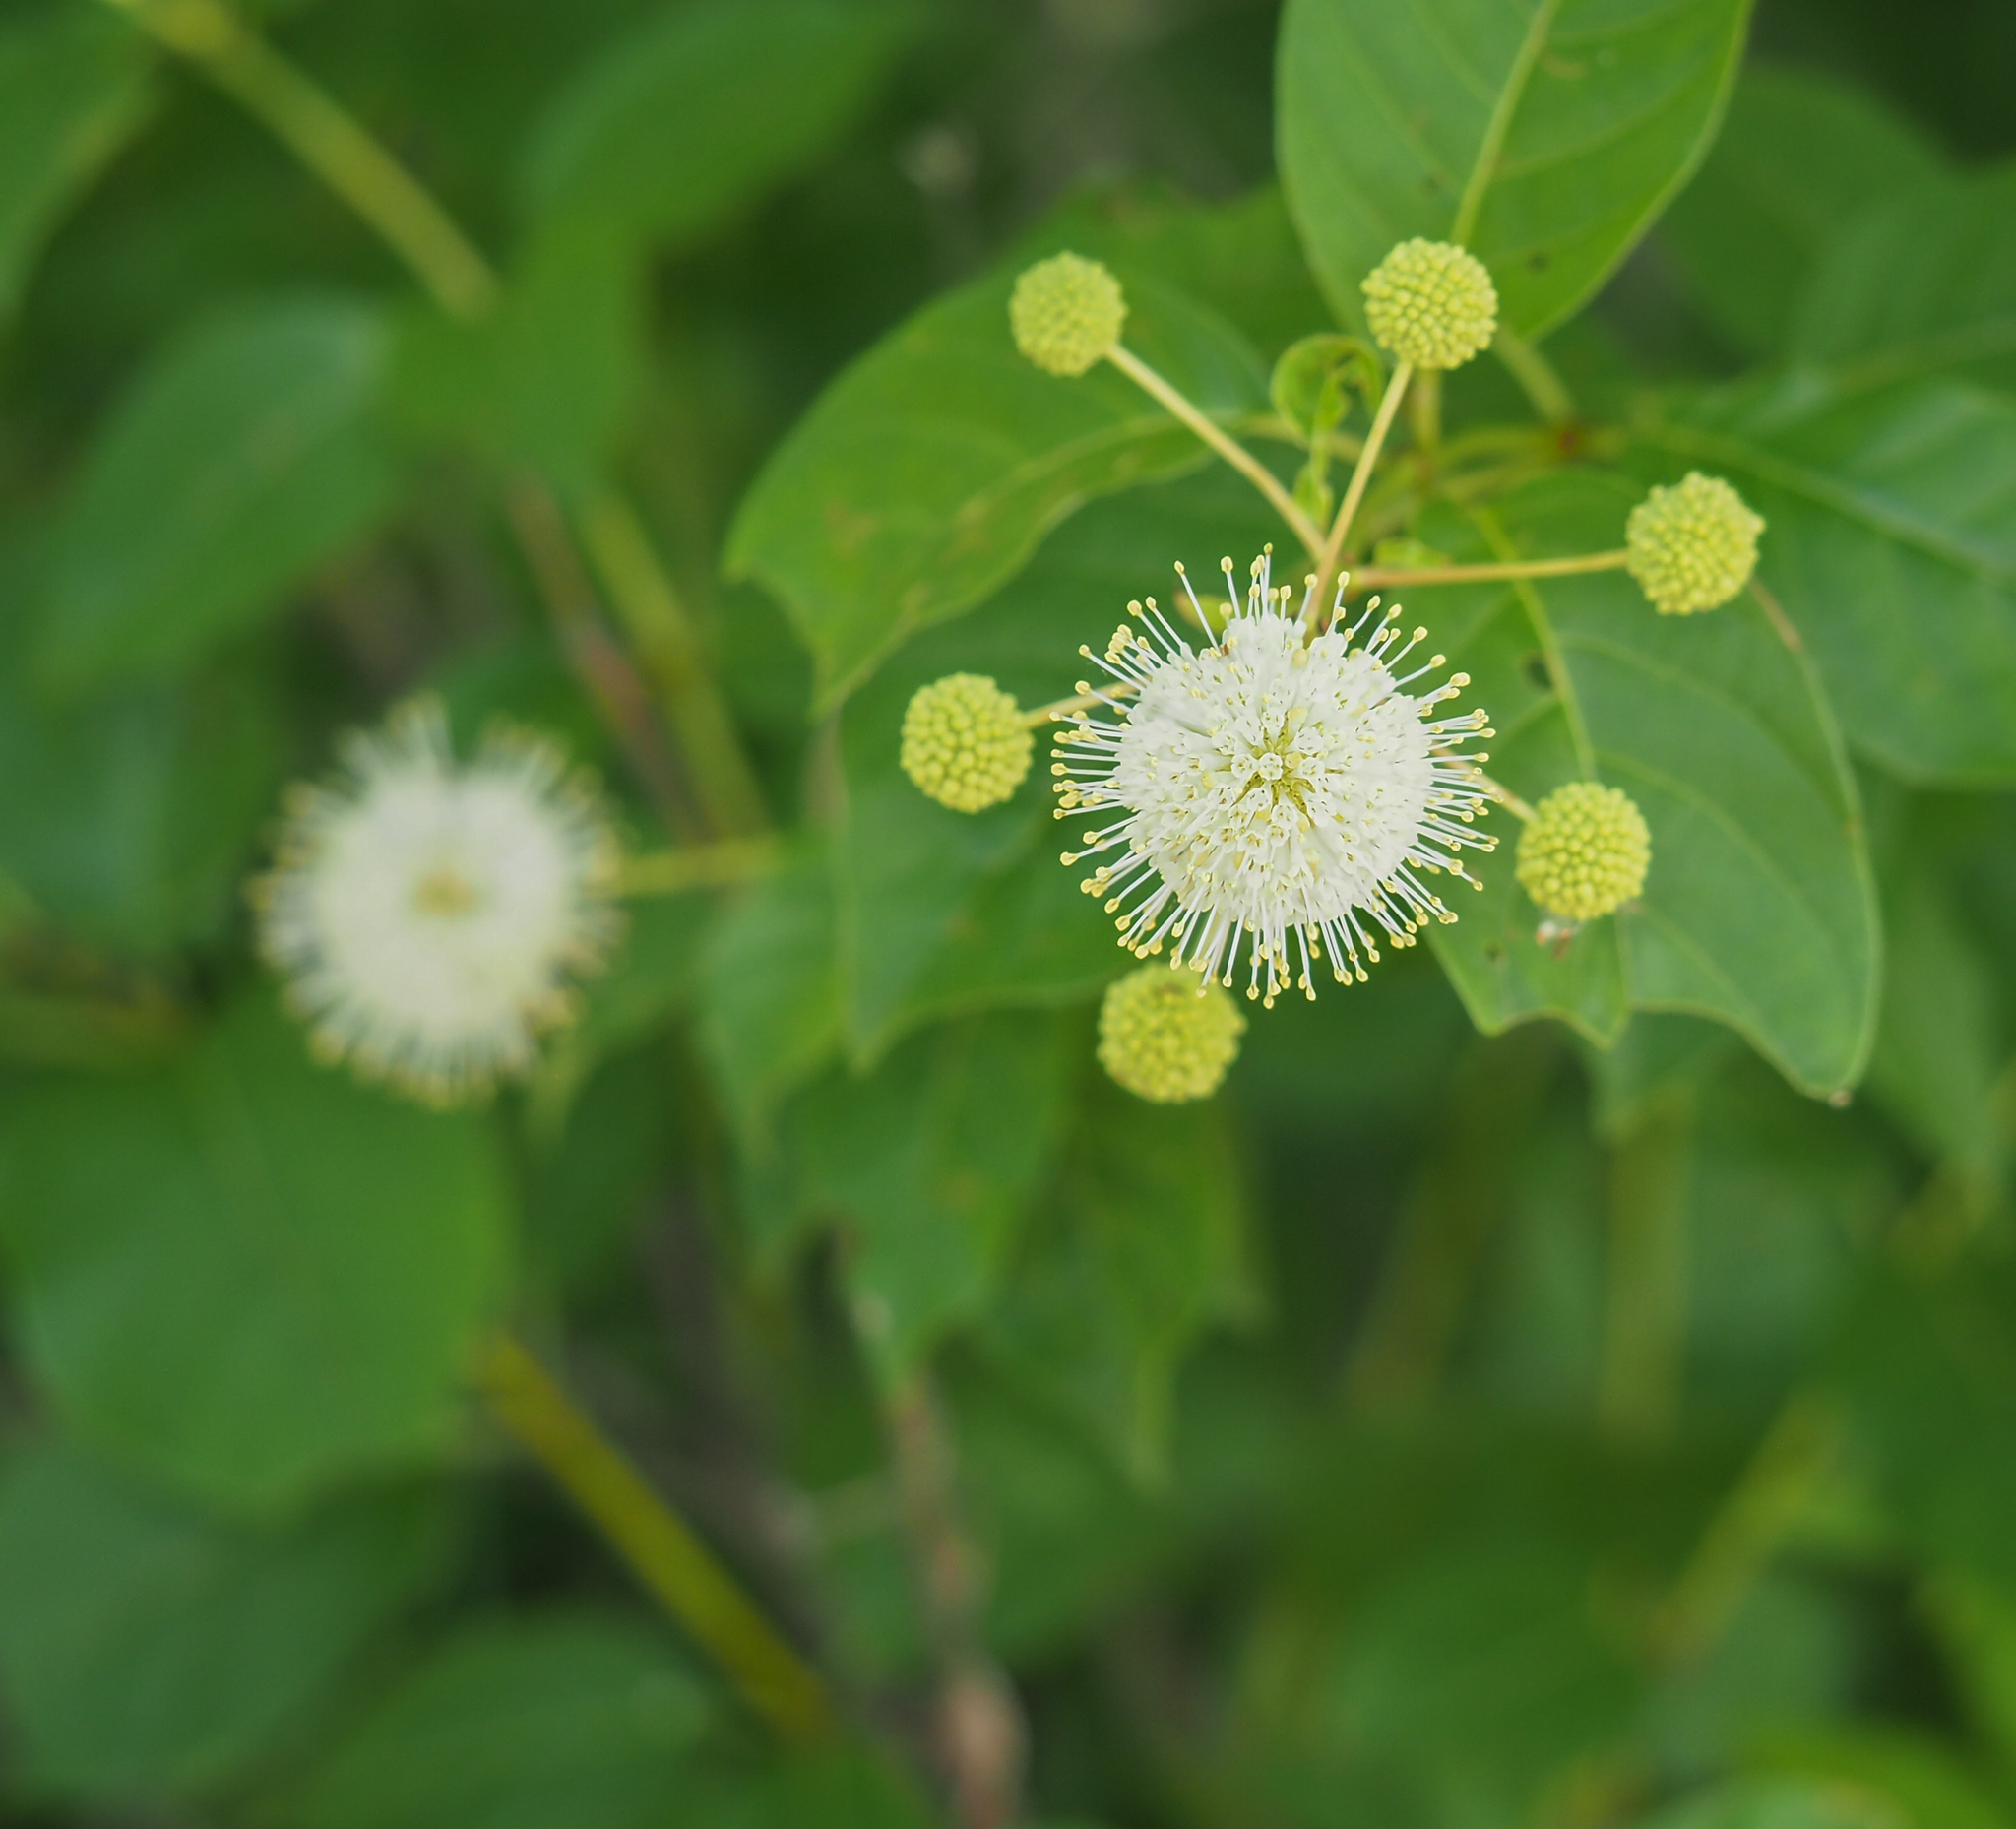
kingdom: Plantae
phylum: Tracheophyta
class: Magnoliopsida
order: Gentianales
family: Rubiaceae
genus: Cephalanthus
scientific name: Cephalanthus occidentalis
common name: Button-willow
